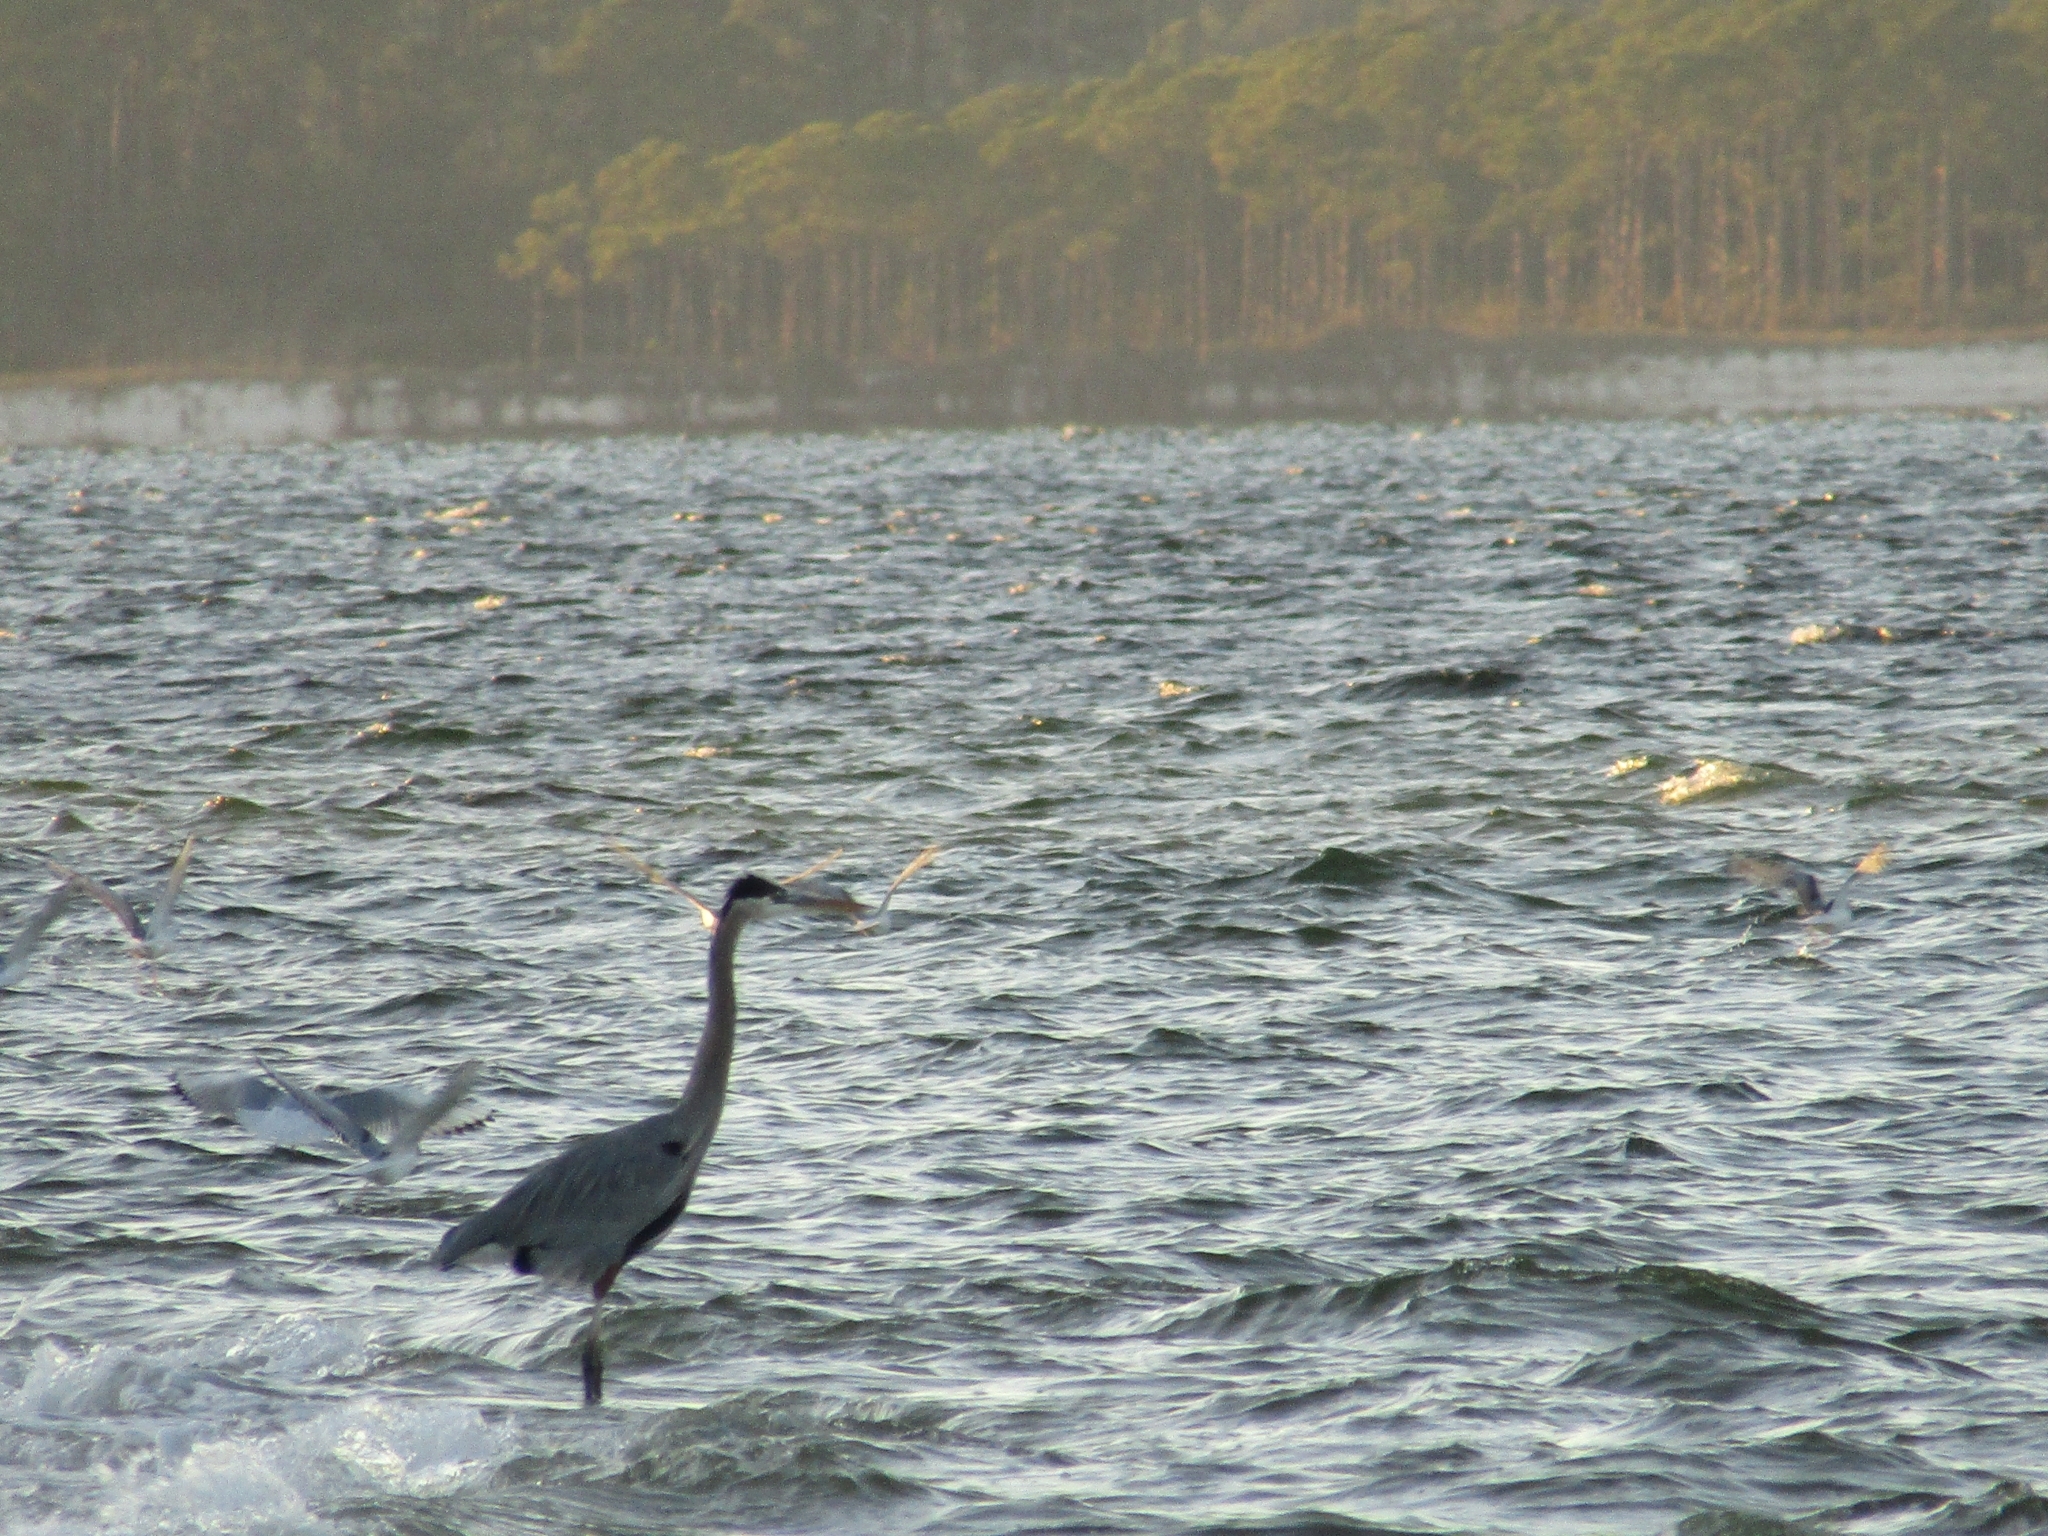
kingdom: Animalia
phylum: Chordata
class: Aves
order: Pelecaniformes
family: Ardeidae
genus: Ardea
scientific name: Ardea herodias
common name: Great blue heron
